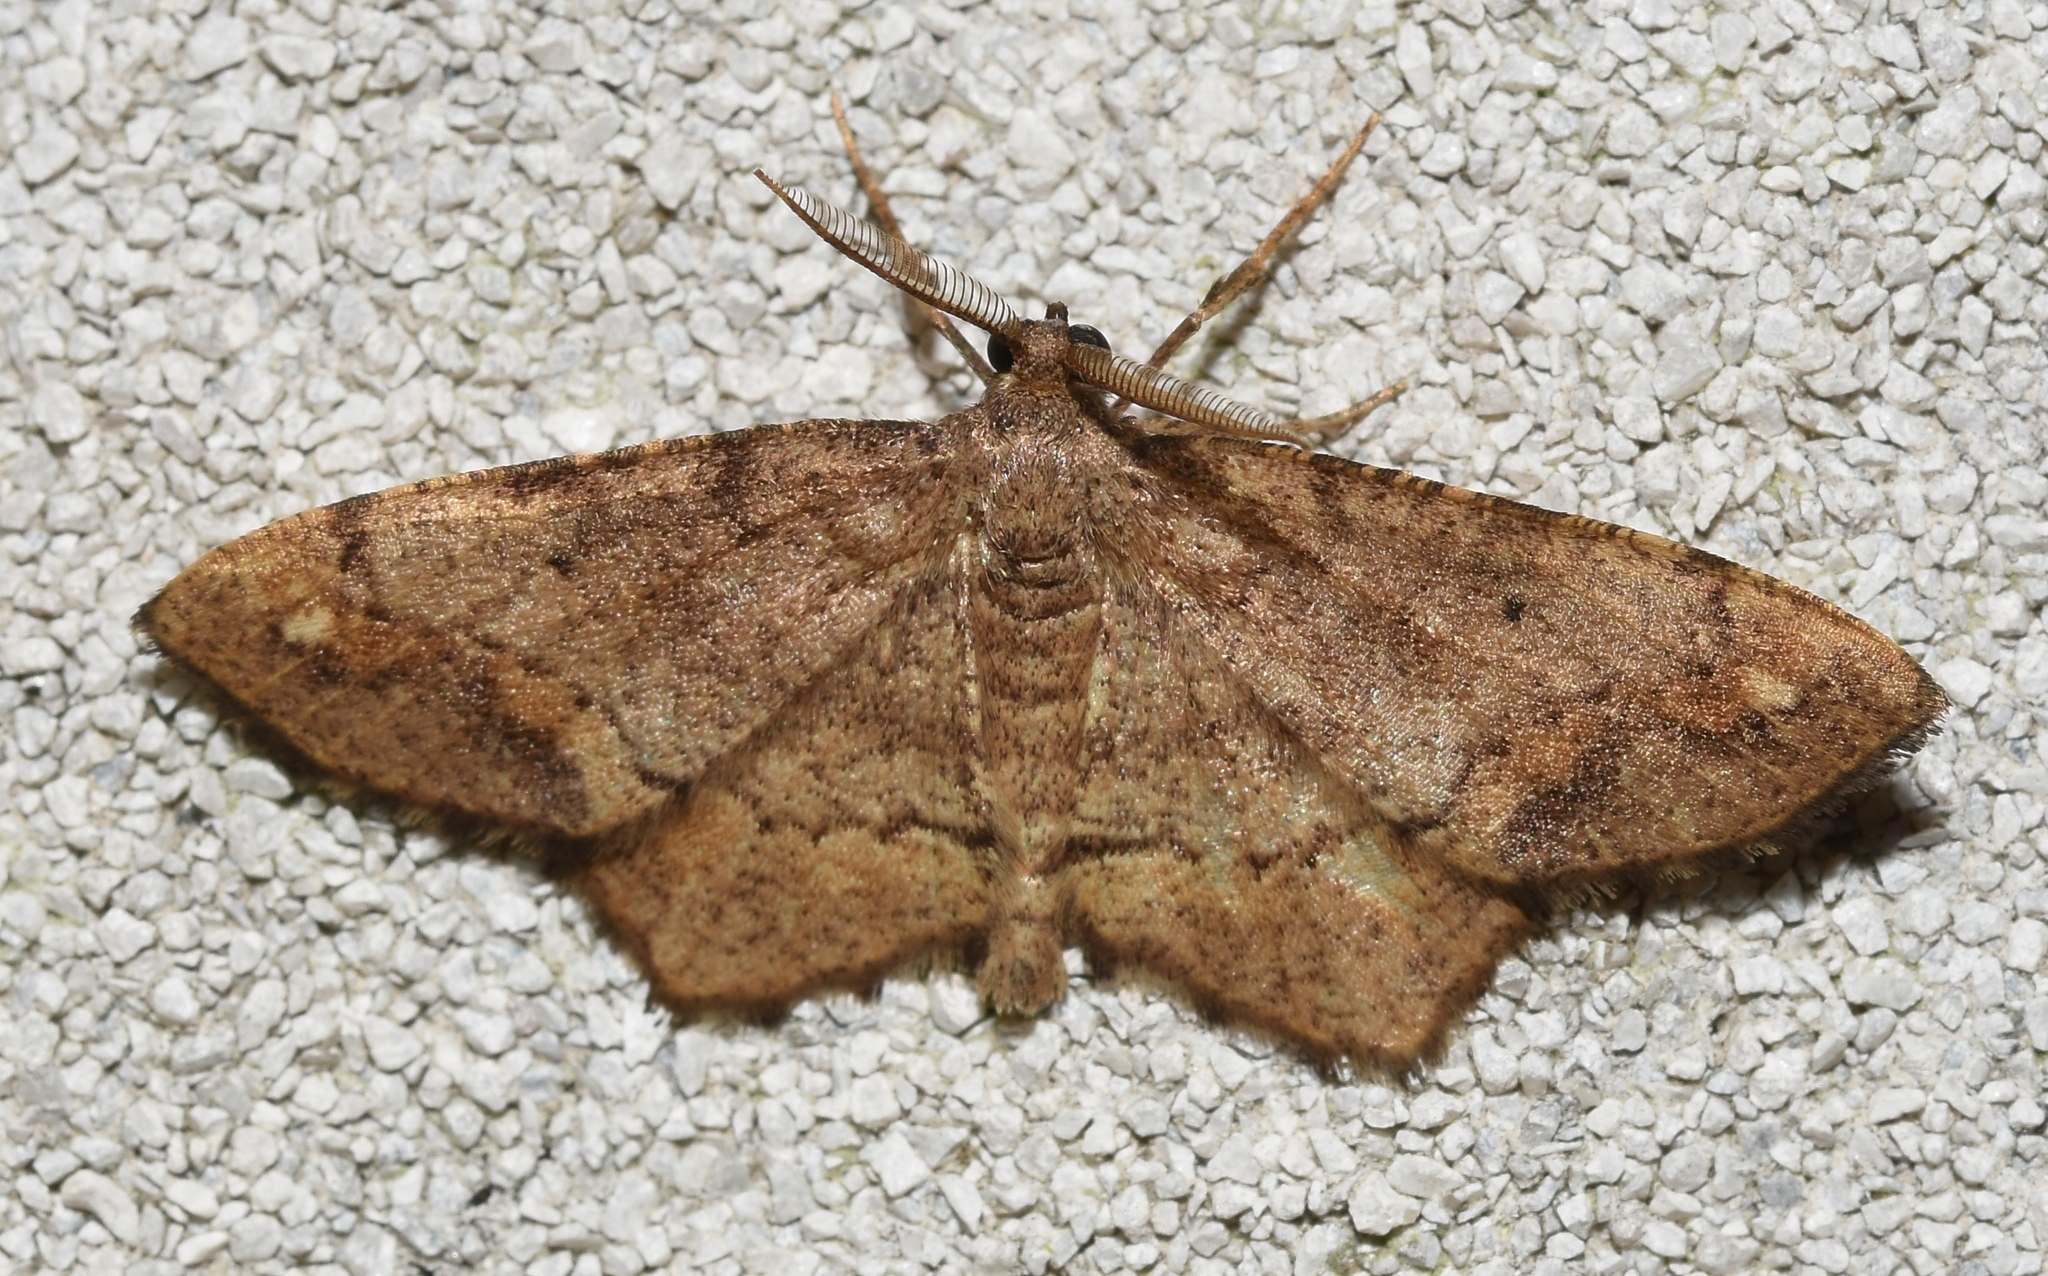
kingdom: Animalia
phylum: Arthropoda
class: Insecta
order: Lepidoptera
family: Geometridae
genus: Hypagyrtis
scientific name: Hypagyrtis unipunctata
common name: One-spotted variant
